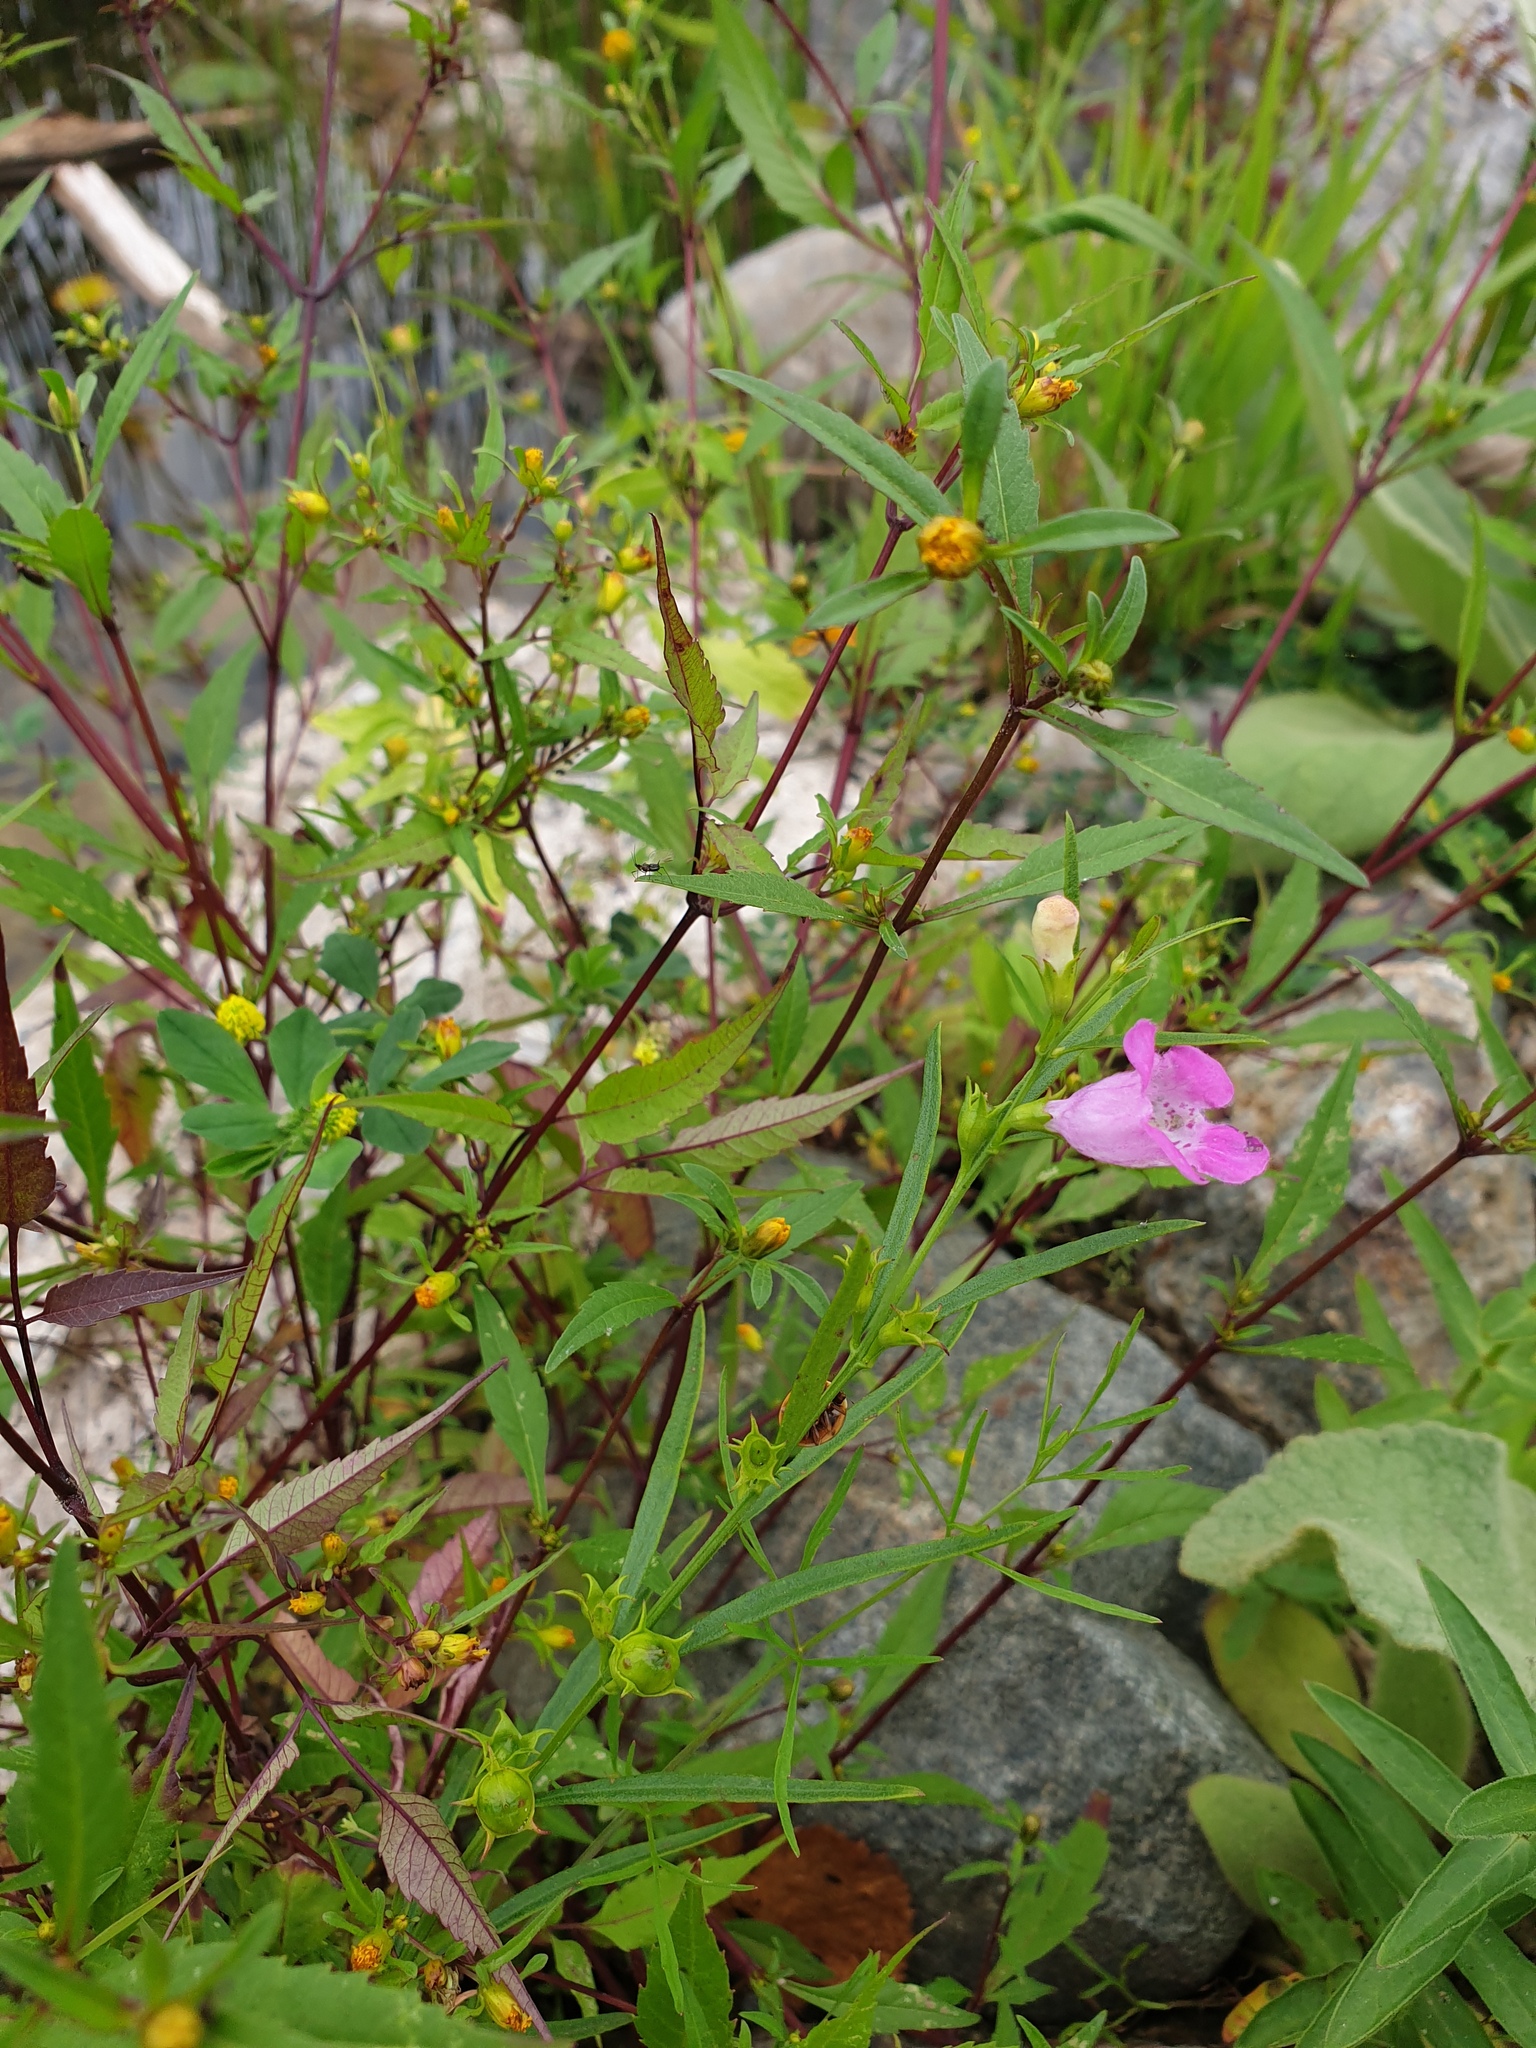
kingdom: Plantae
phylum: Tracheophyta
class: Magnoliopsida
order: Lamiales
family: Orobanchaceae
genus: Agalinis
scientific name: Agalinis purpurea
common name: Purple false foxglove
